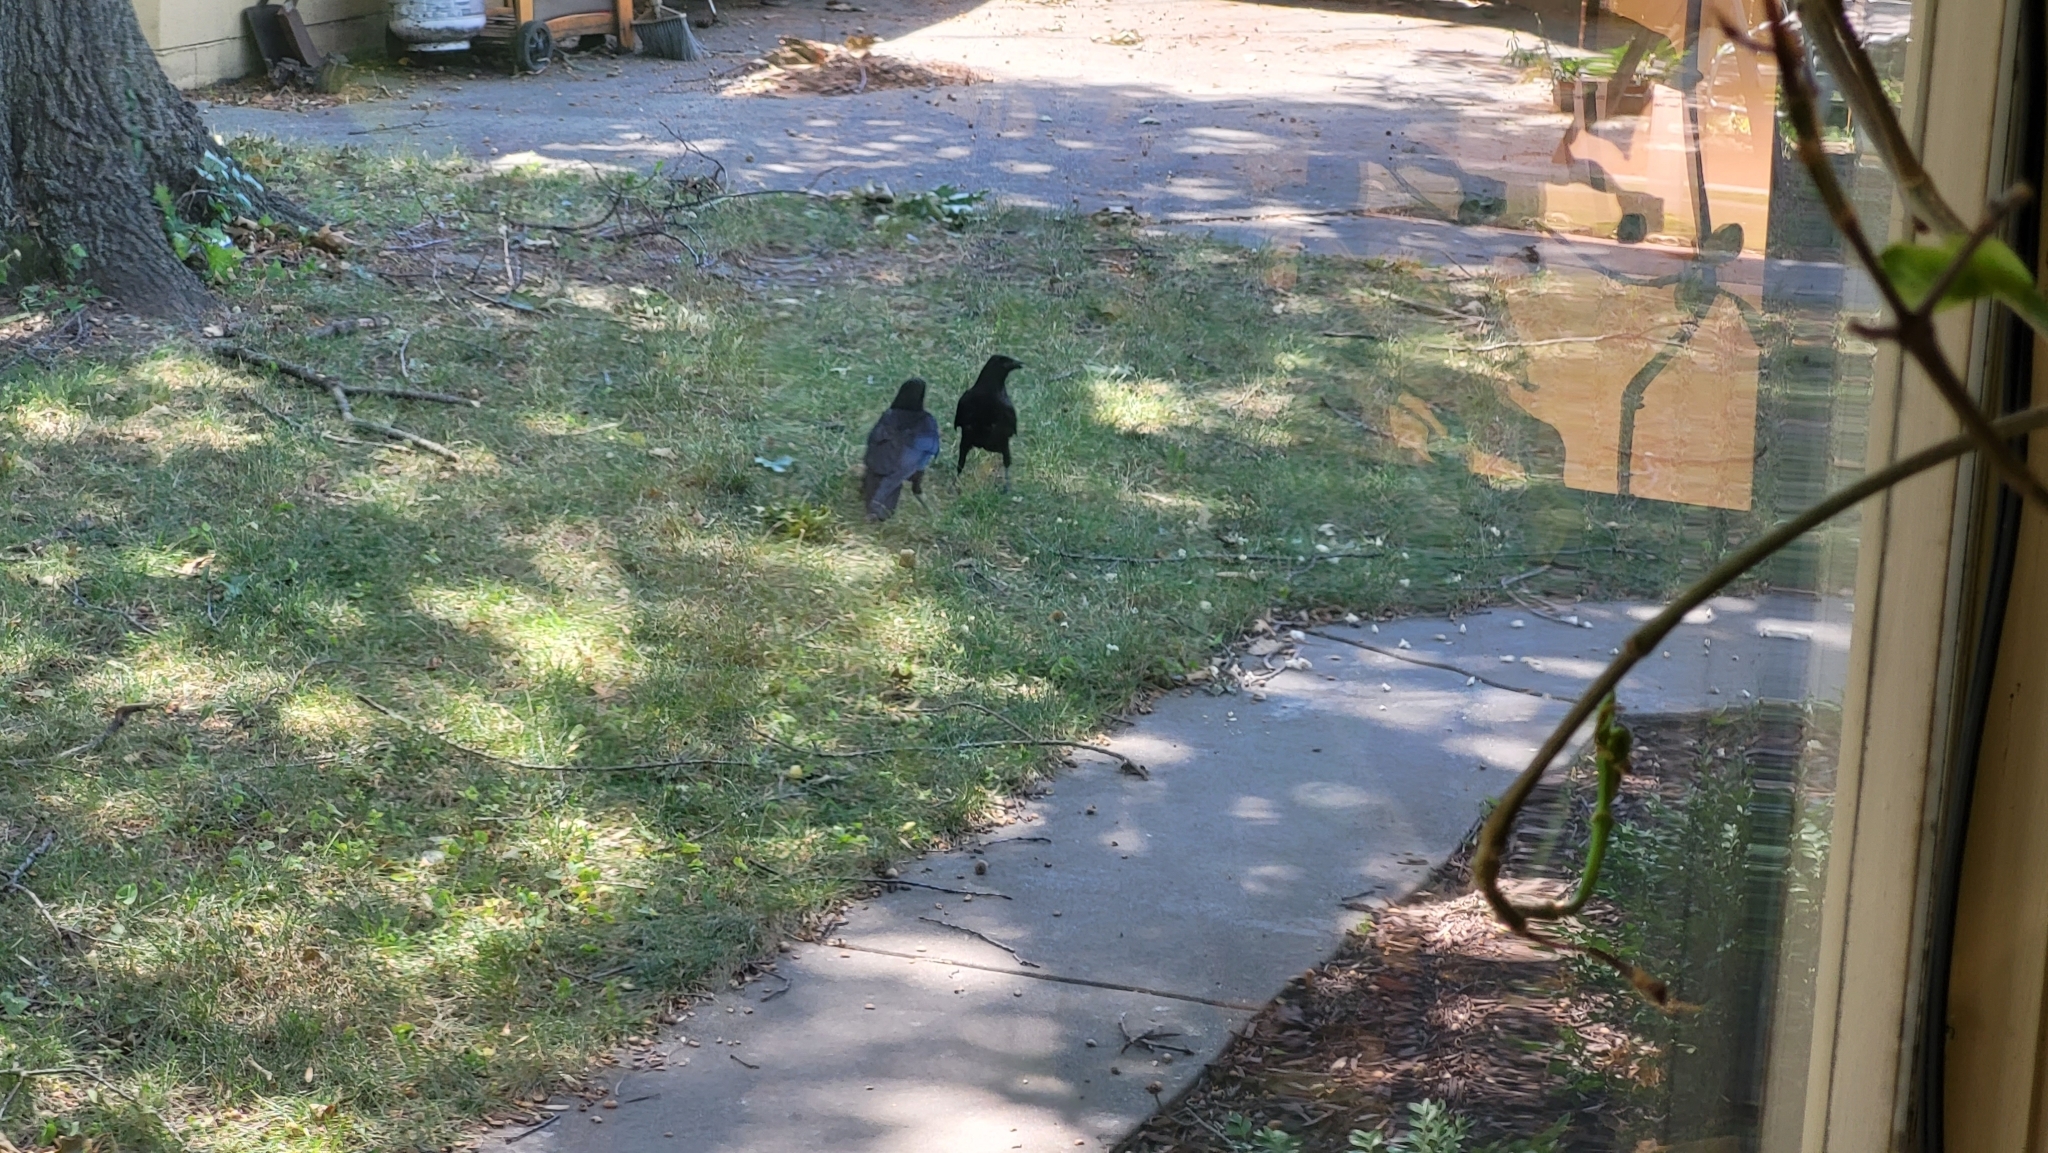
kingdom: Animalia
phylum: Chordata
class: Aves
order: Passeriformes
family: Corvidae
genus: Corvus
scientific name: Corvus brachyrhynchos
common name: American crow
